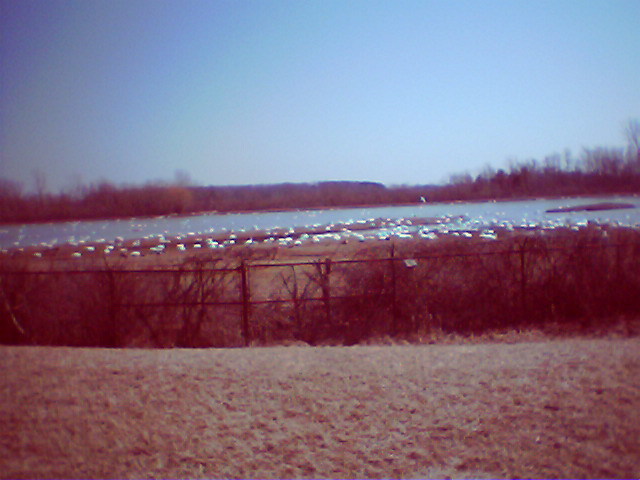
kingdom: Animalia
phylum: Chordata
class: Aves
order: Anseriformes
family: Anatidae
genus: Cygnus
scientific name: Cygnus columbianus
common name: Tundra swan
